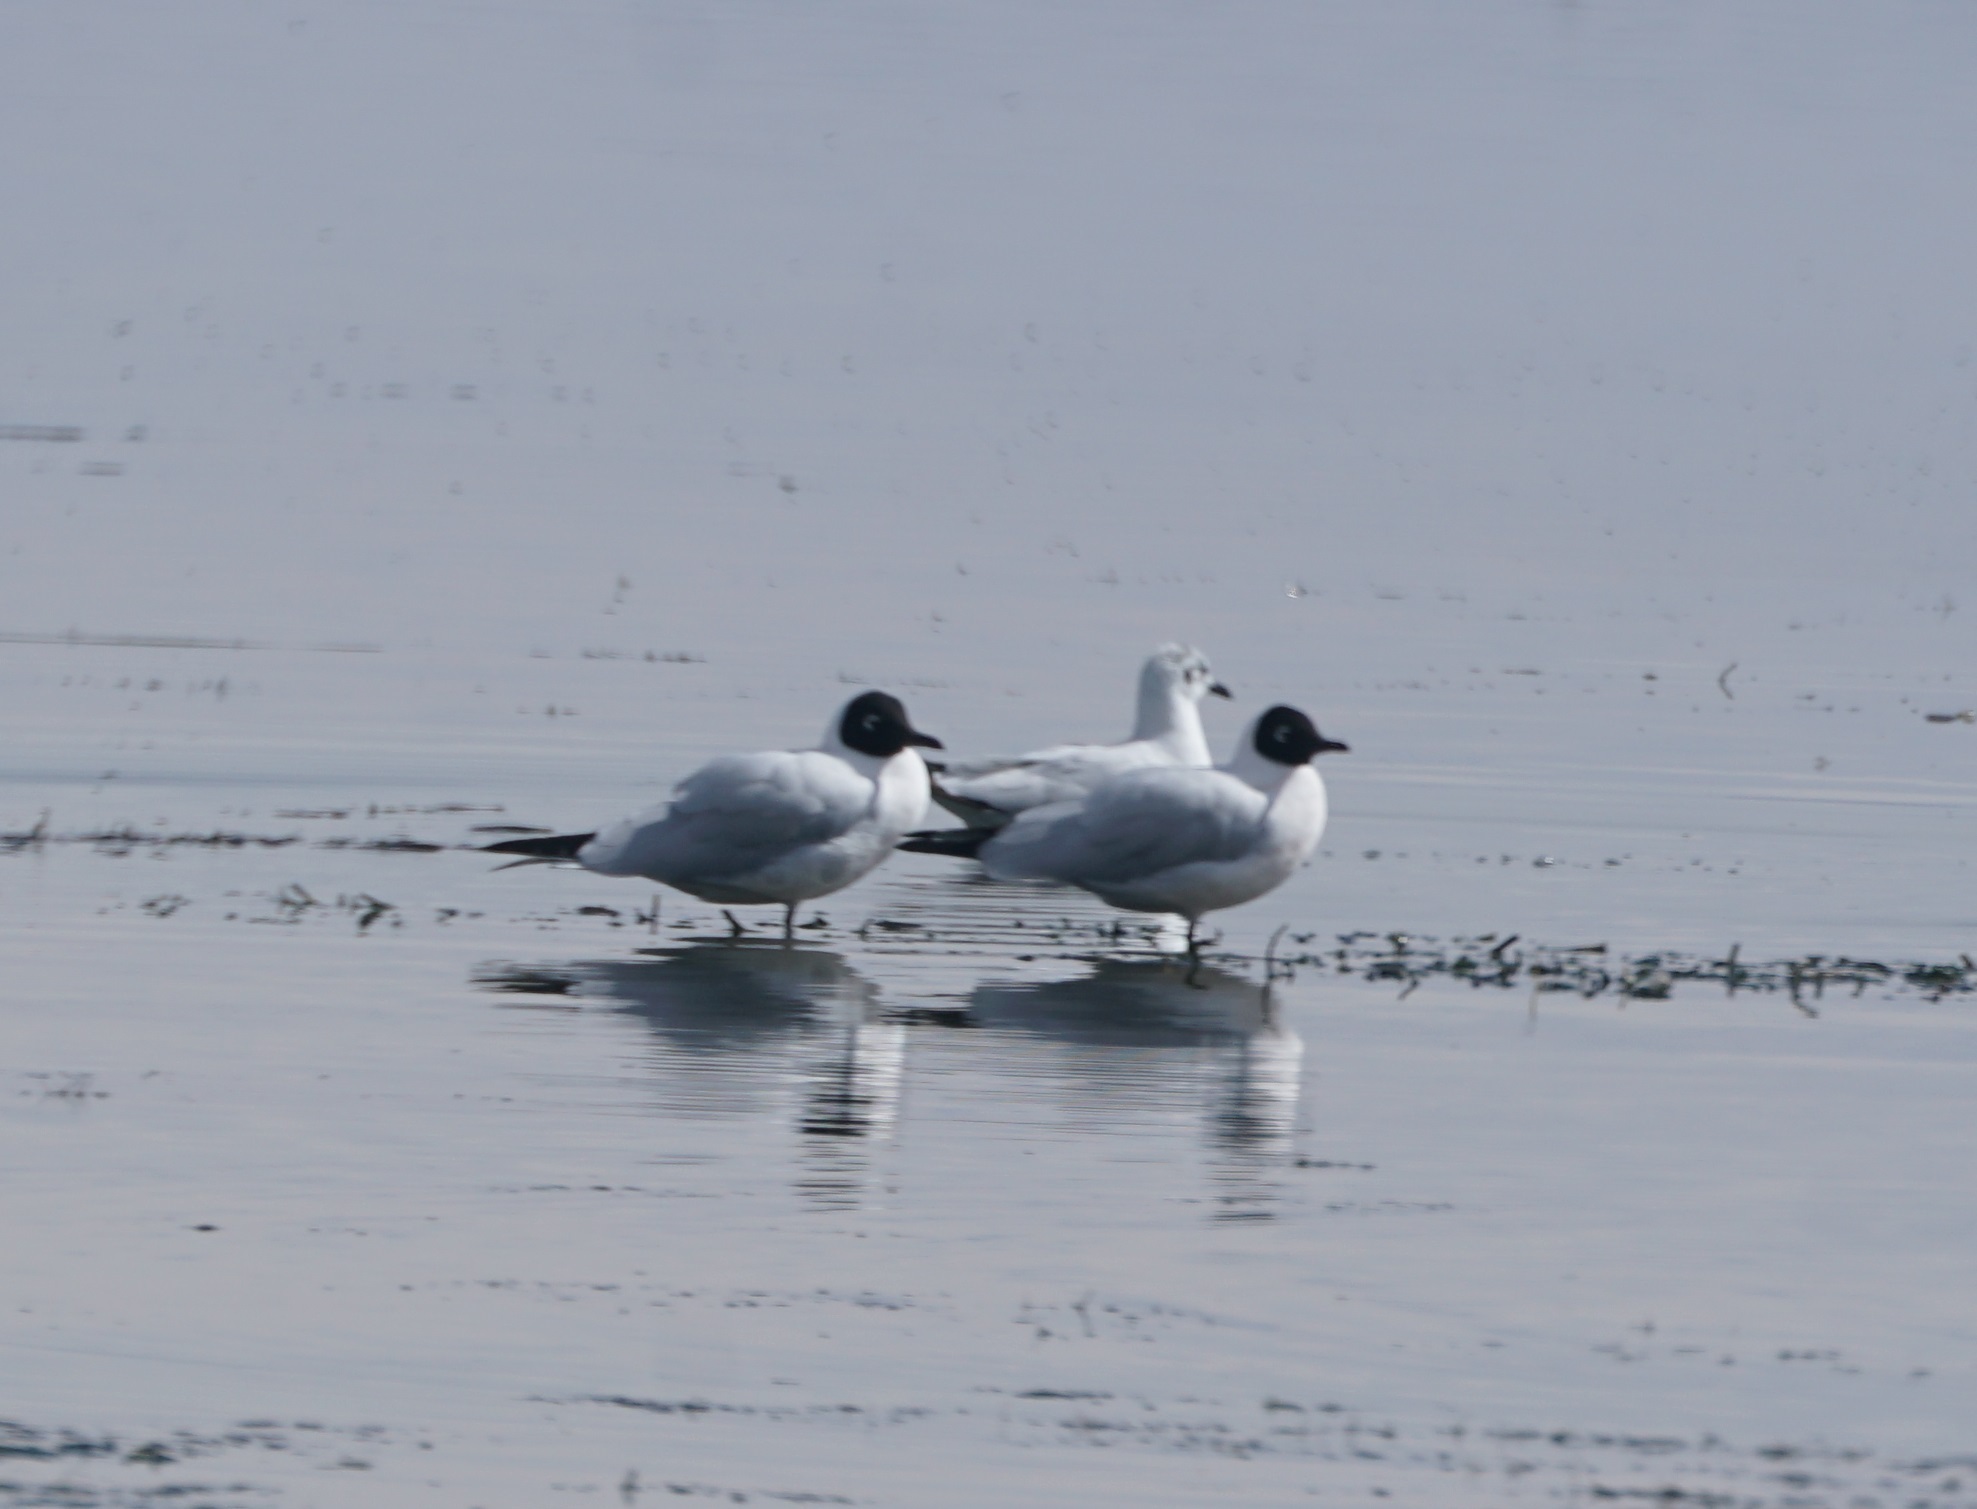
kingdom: Animalia
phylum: Chordata
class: Aves
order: Charadriiformes
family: Laridae
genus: Chroicocephalus
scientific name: Chroicocephalus serranus
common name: Andean gull
